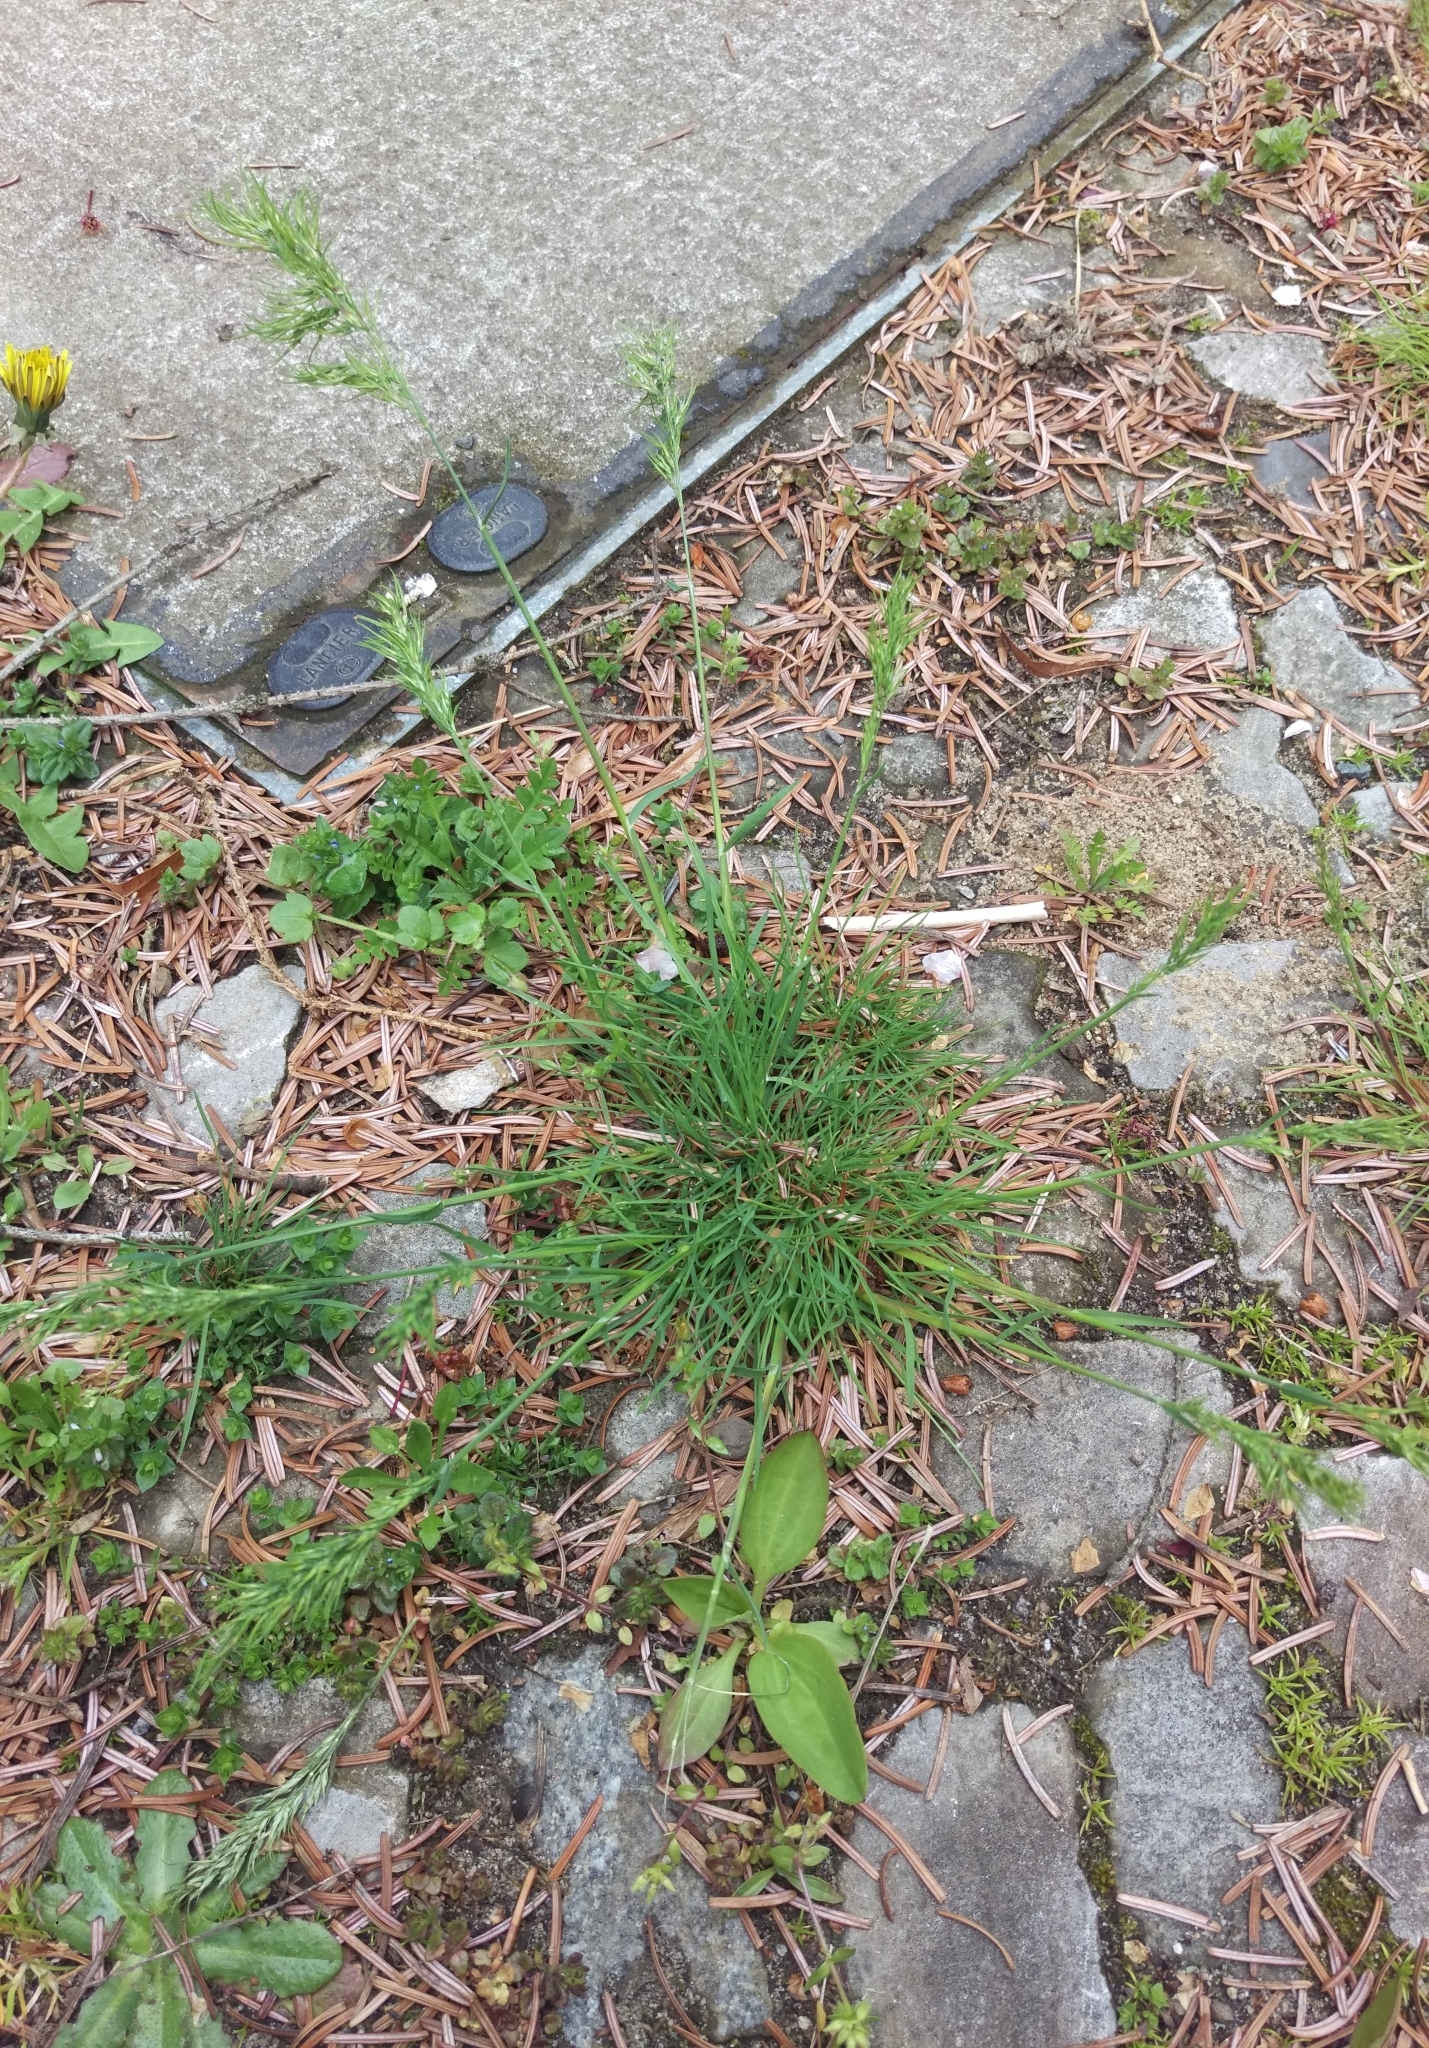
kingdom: Plantae
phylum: Tracheophyta
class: Liliopsida
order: Poales
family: Poaceae
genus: Poa
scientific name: Poa bulbosa
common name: Bulbous bluegrass
